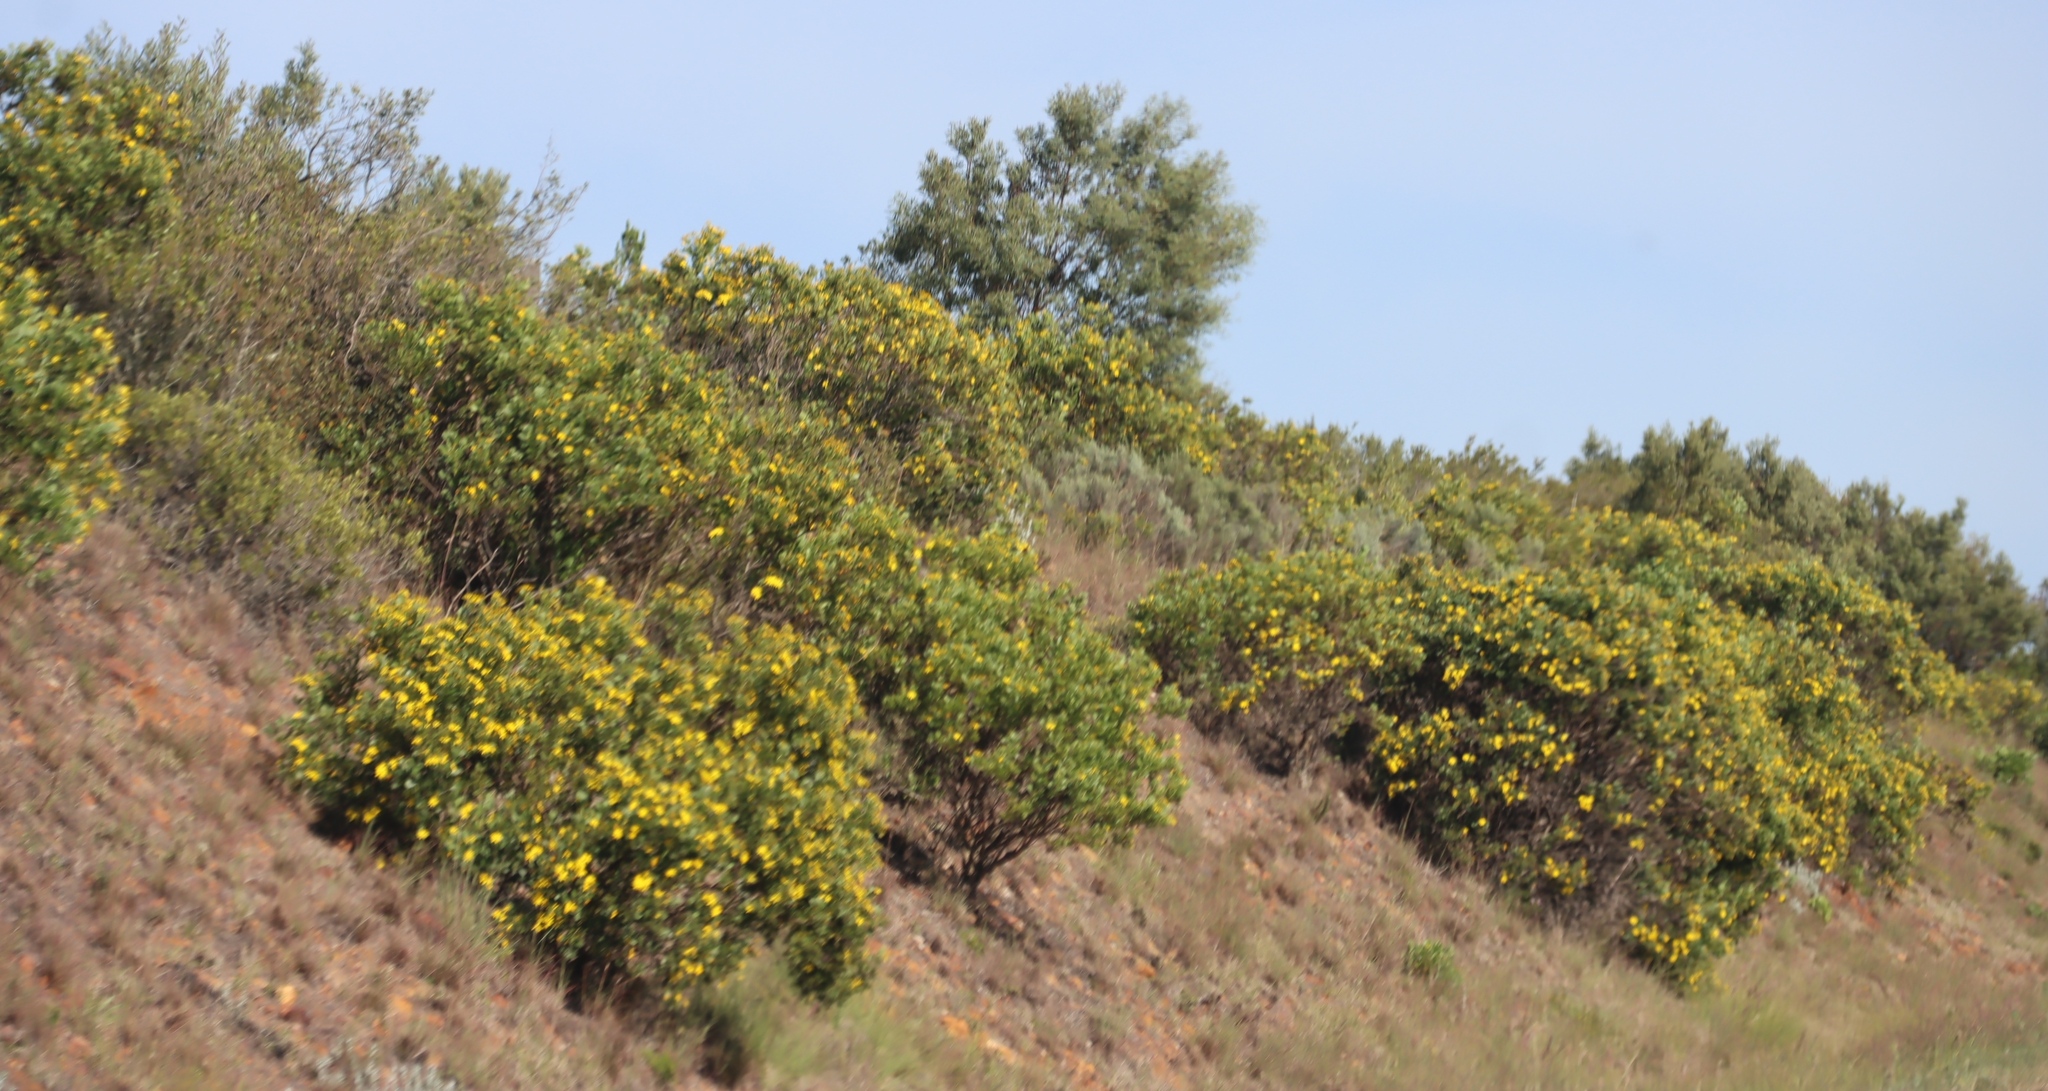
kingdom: Plantae
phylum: Tracheophyta
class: Magnoliopsida
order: Asterales
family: Asteraceae
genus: Osteospermum
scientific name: Osteospermum moniliferum
